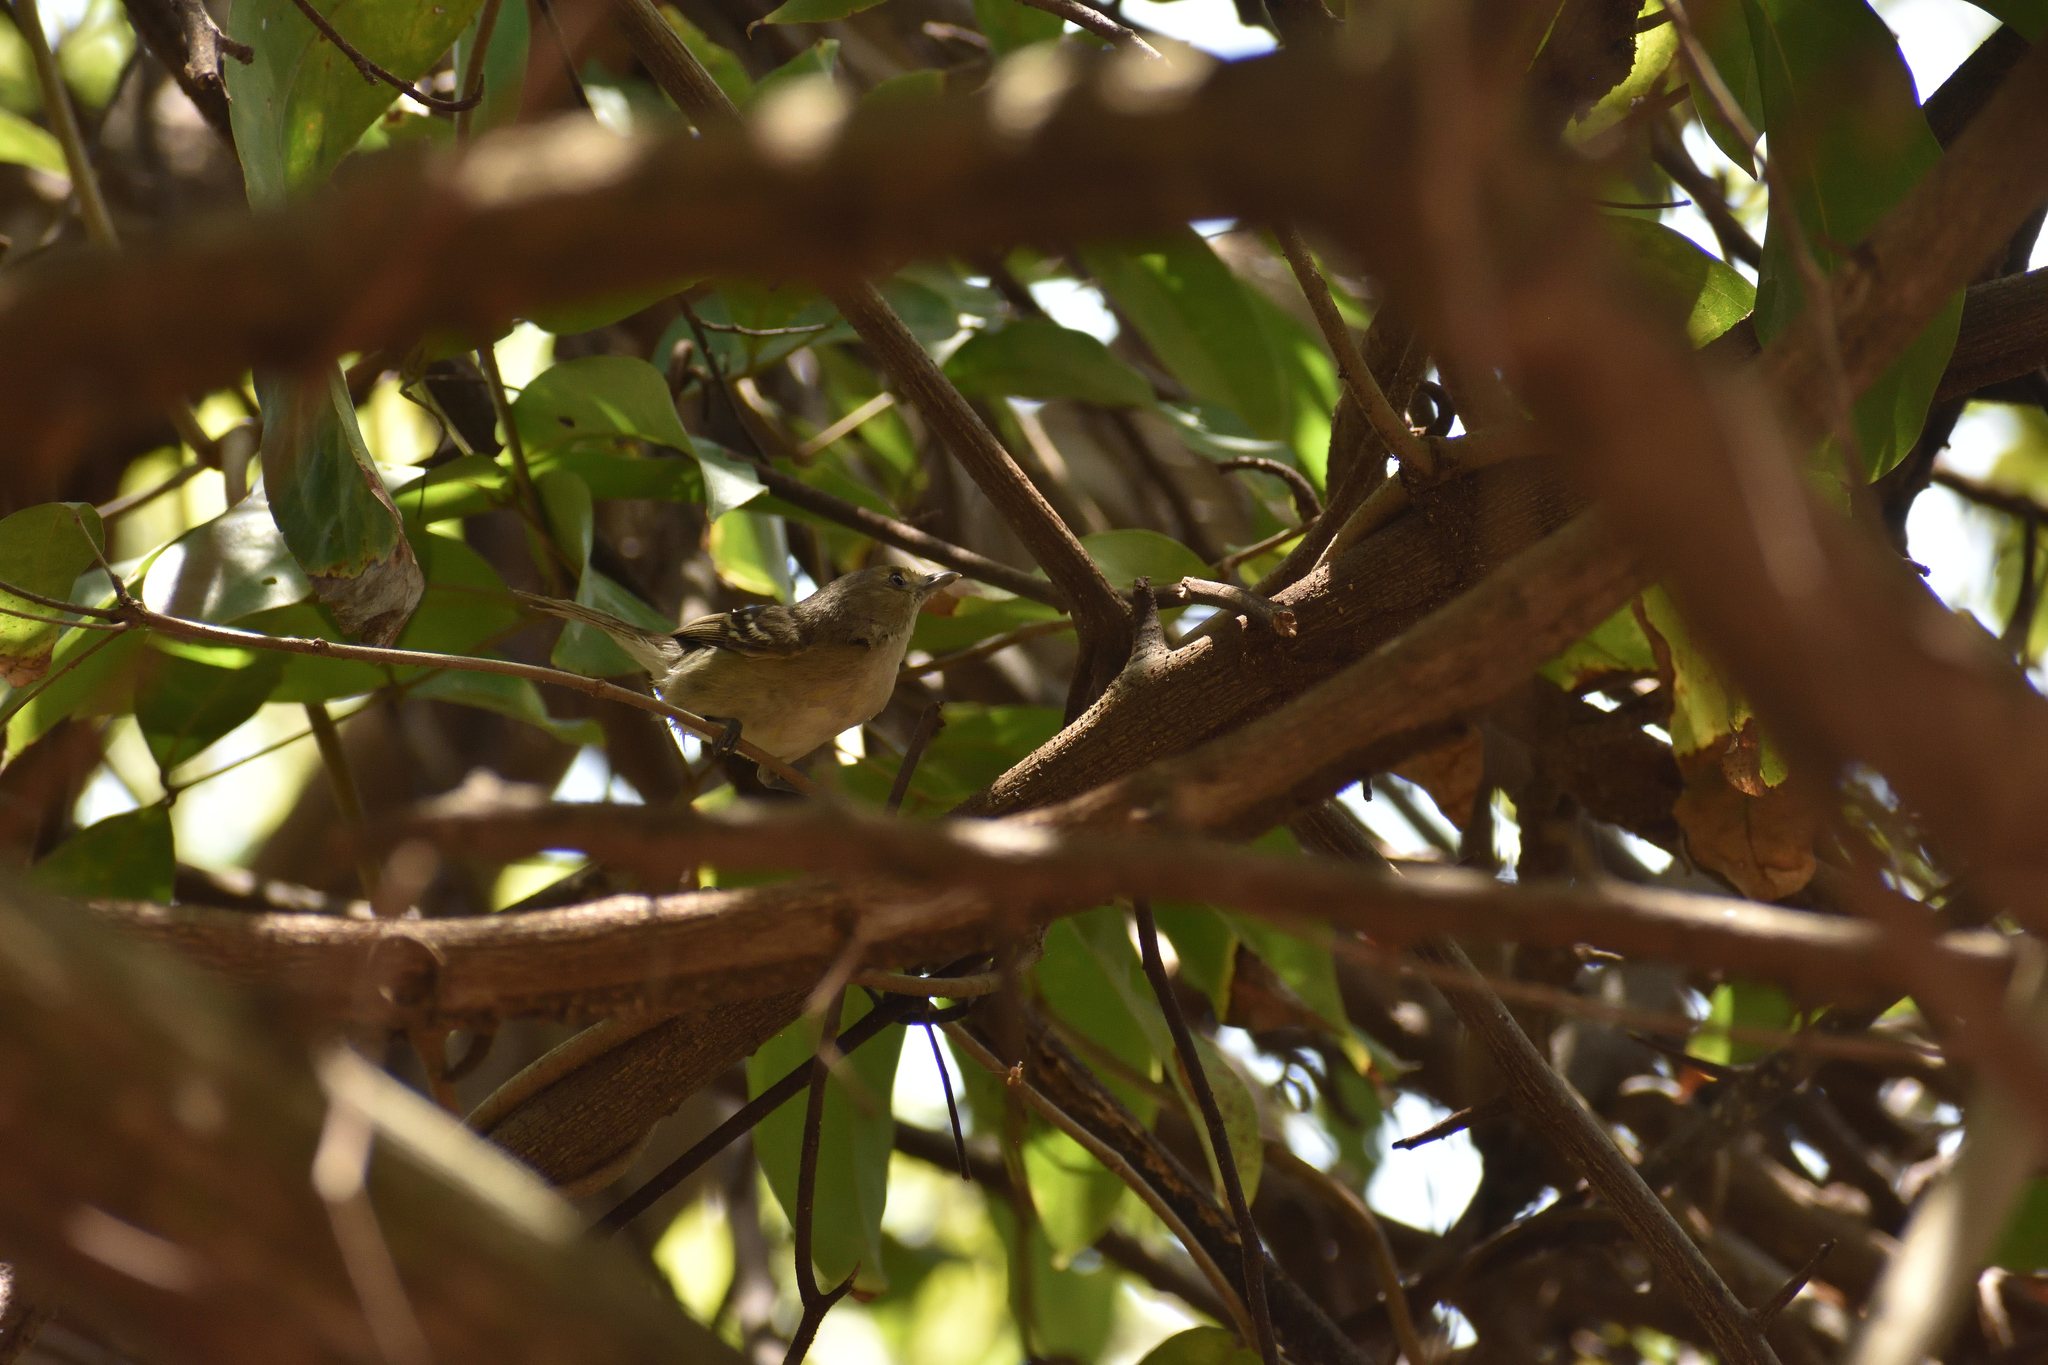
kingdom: Animalia
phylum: Chordata
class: Aves
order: Passeriformes
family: Vireonidae
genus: Vireo
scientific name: Vireo caribaeus
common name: San andres vireo
